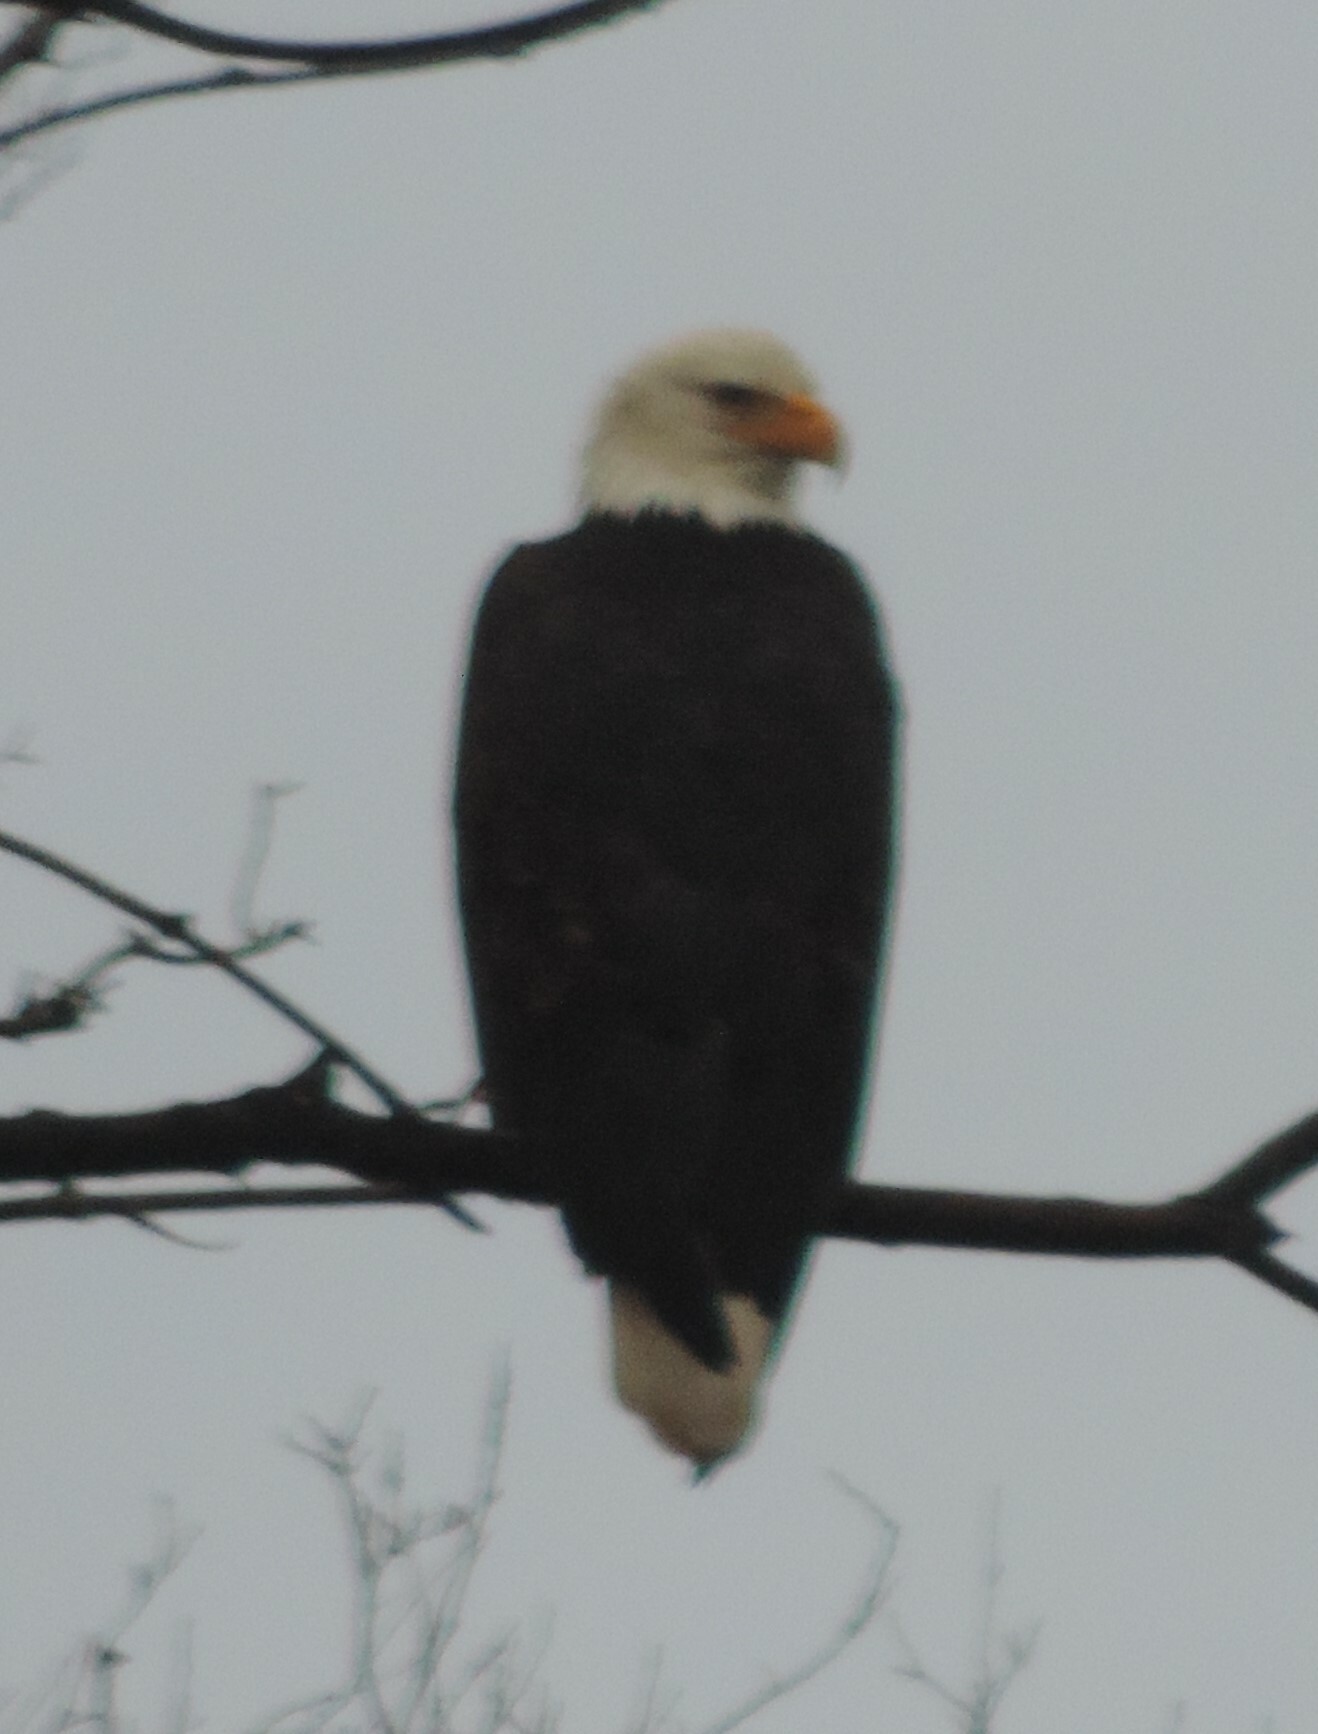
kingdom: Animalia
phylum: Chordata
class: Aves
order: Accipitriformes
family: Accipitridae
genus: Haliaeetus
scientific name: Haliaeetus leucocephalus
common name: Bald eagle
